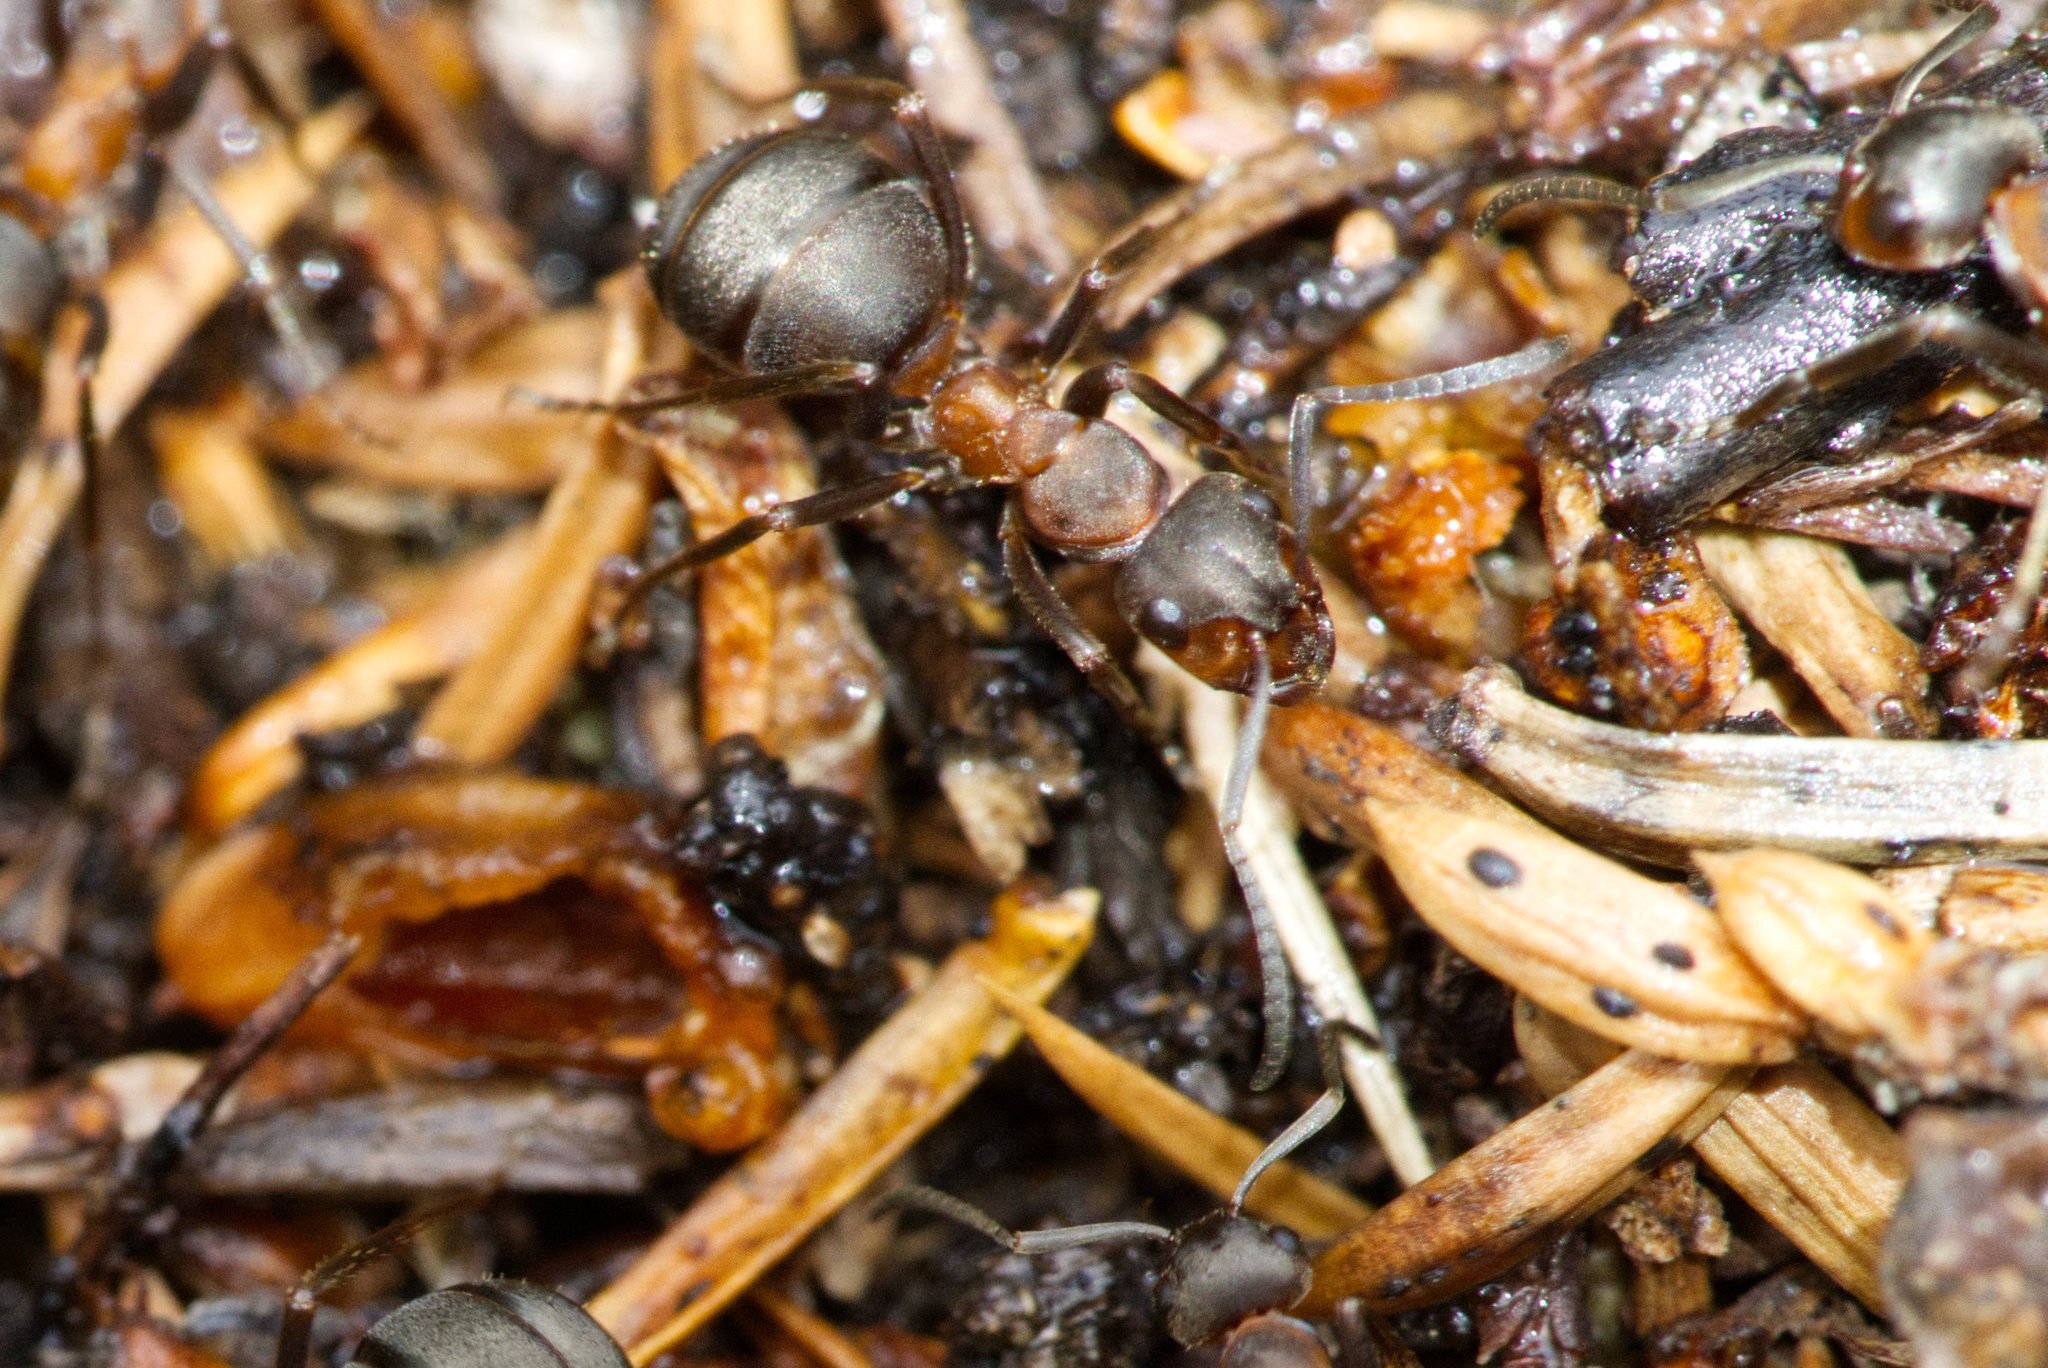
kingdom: Animalia
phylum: Arthropoda
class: Insecta
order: Hymenoptera
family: Formicidae
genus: Formica
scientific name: Formica aquilonia
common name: Scottish wood ant
